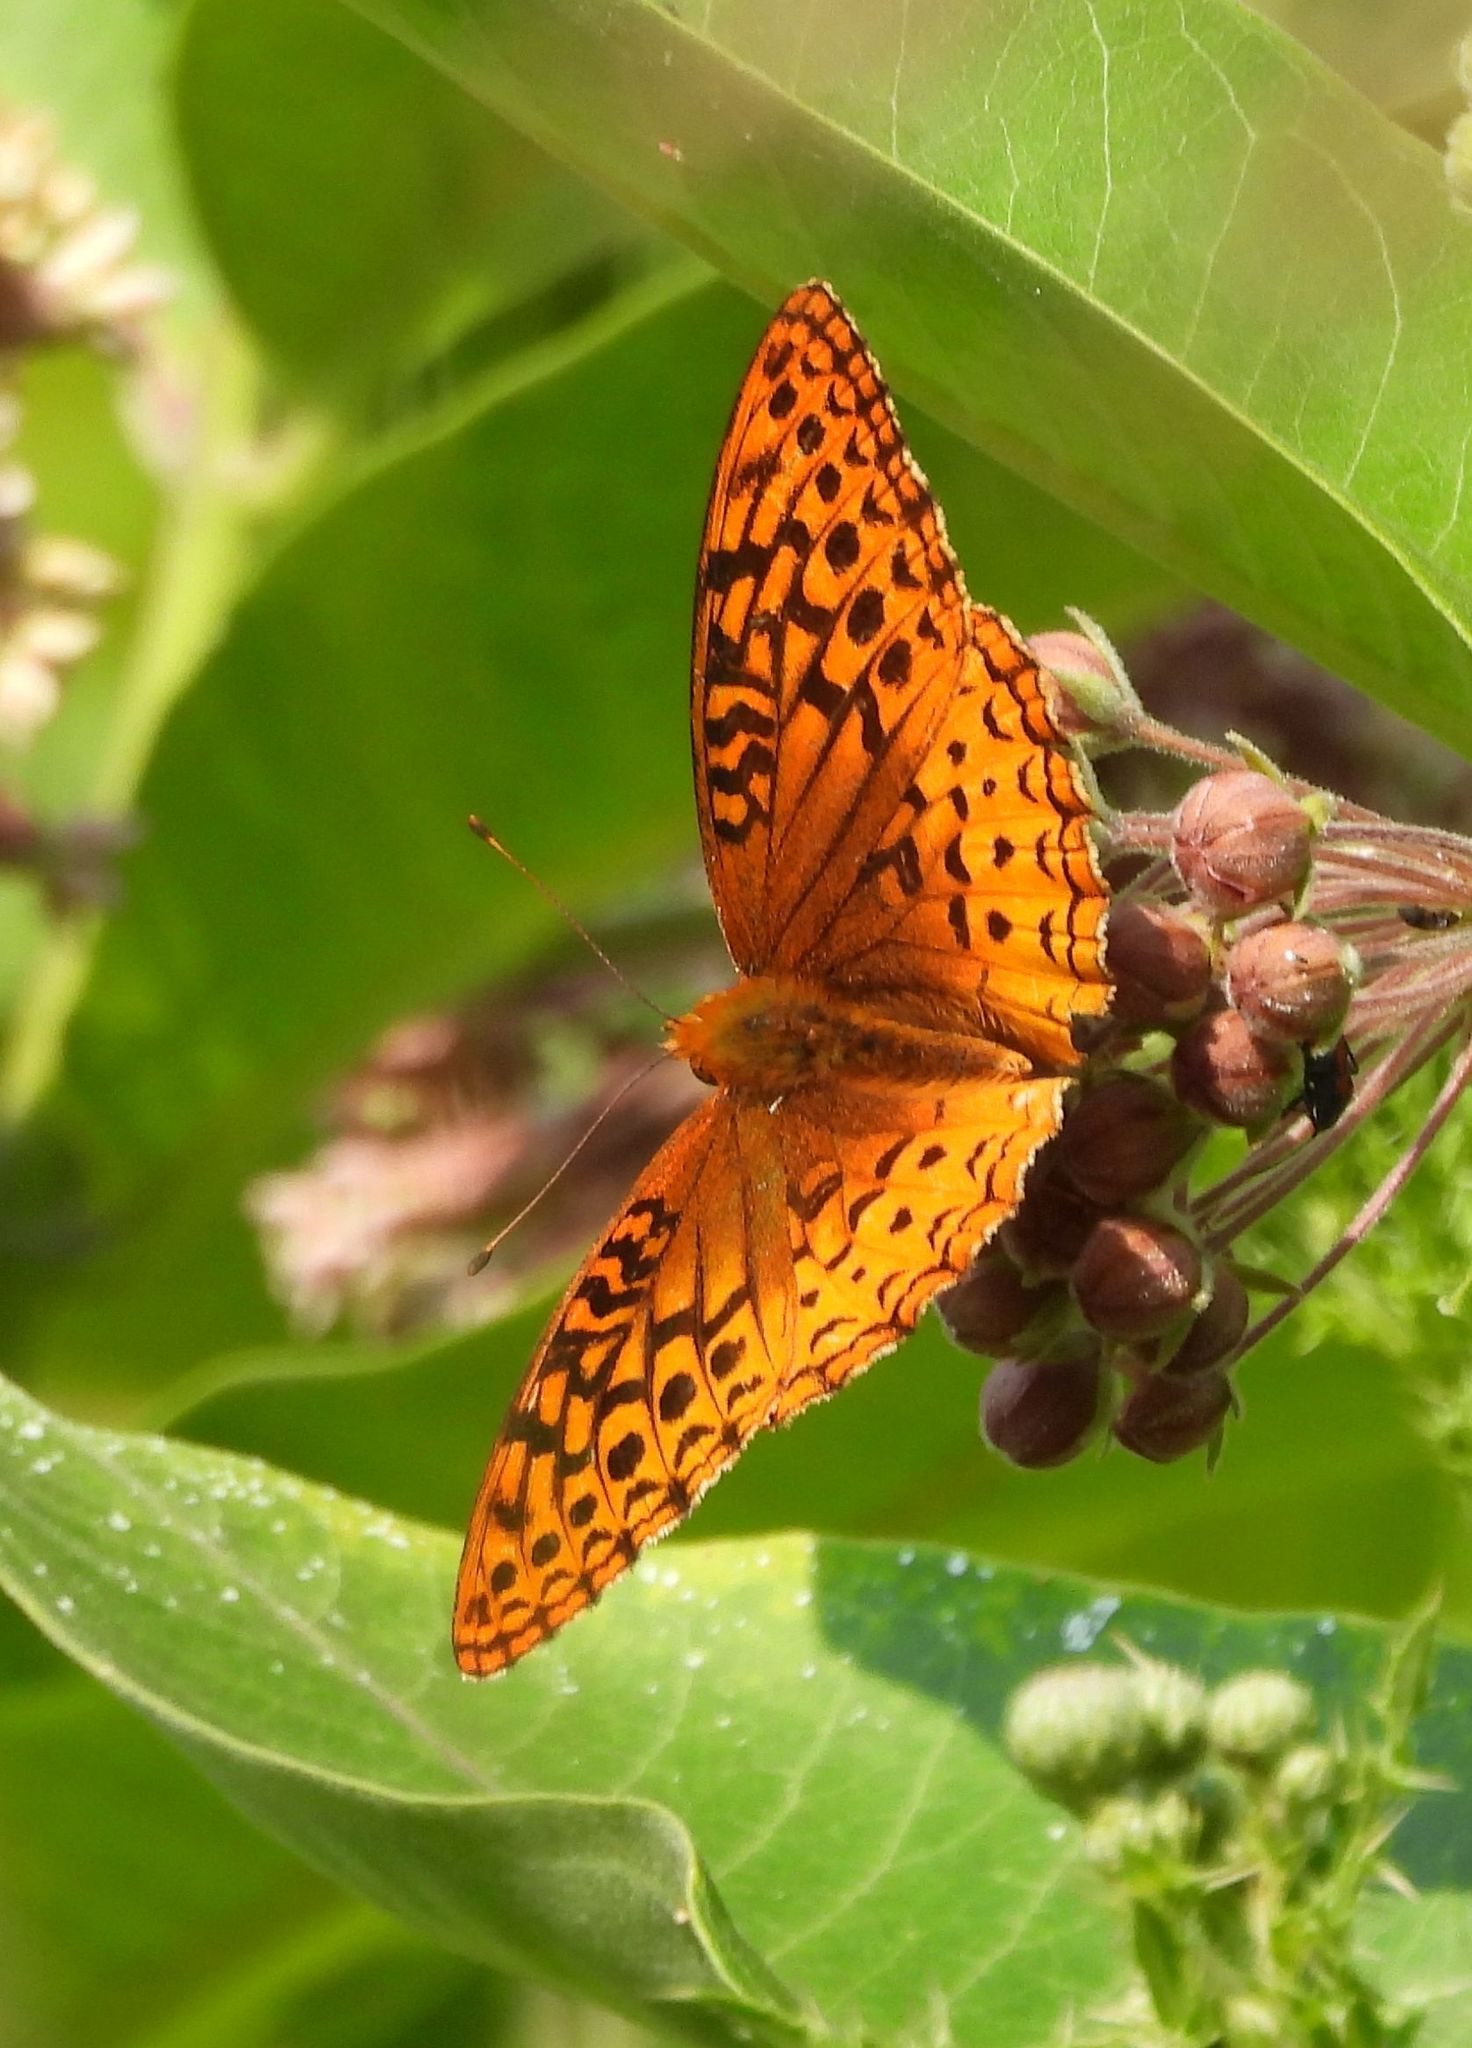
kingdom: Animalia
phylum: Arthropoda
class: Insecta
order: Lepidoptera
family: Nymphalidae
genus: Speyeria
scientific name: Speyeria cybele
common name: Great spangled fritillary
